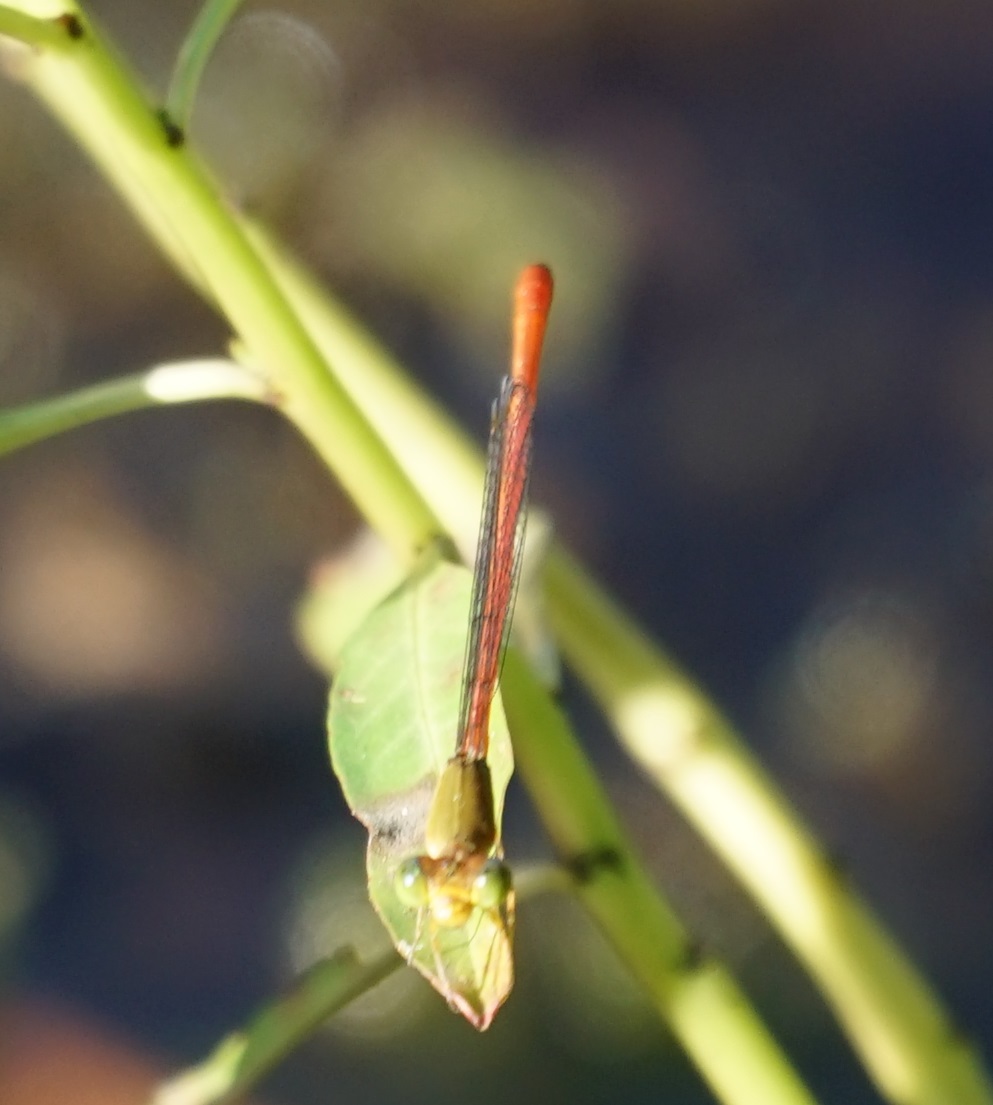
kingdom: Animalia
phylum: Arthropoda
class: Insecta
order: Odonata
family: Coenagrionidae
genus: Ceriagrion
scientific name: Ceriagrion aeruginosum
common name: Redtail
